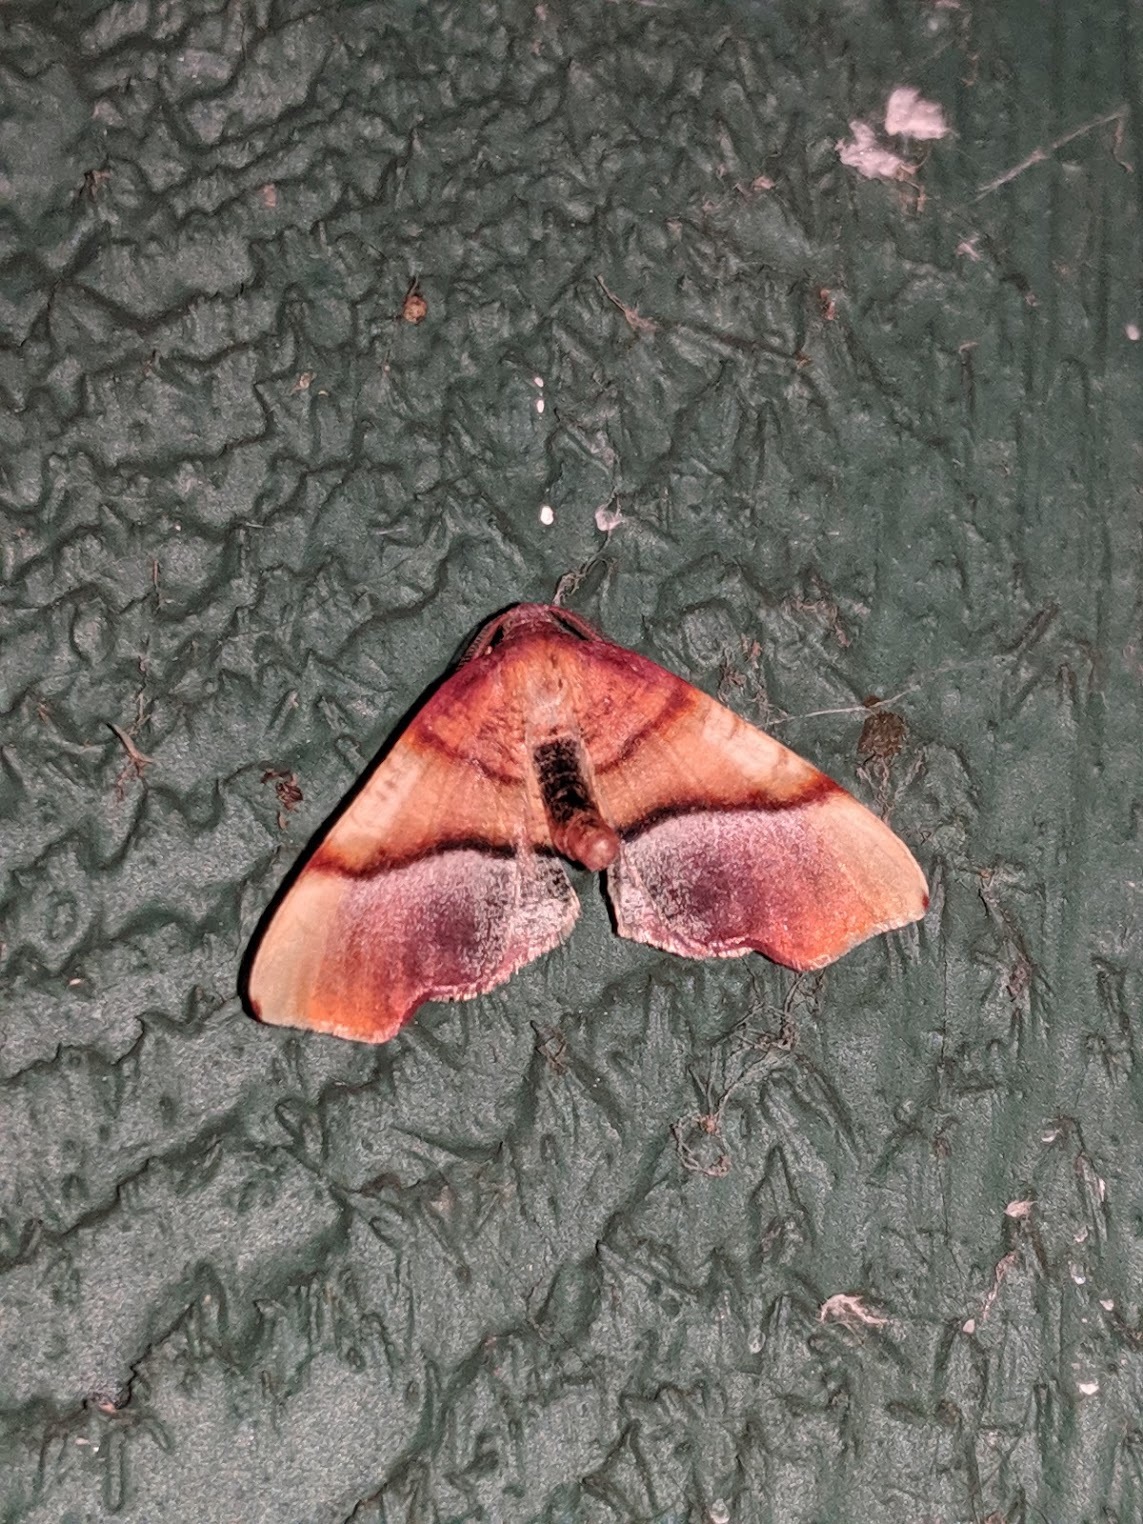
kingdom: Animalia
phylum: Arthropoda
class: Insecta
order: Lepidoptera
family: Geometridae
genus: Plagodis
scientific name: Plagodis phlogosaria
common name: Straight-lined plagodis
